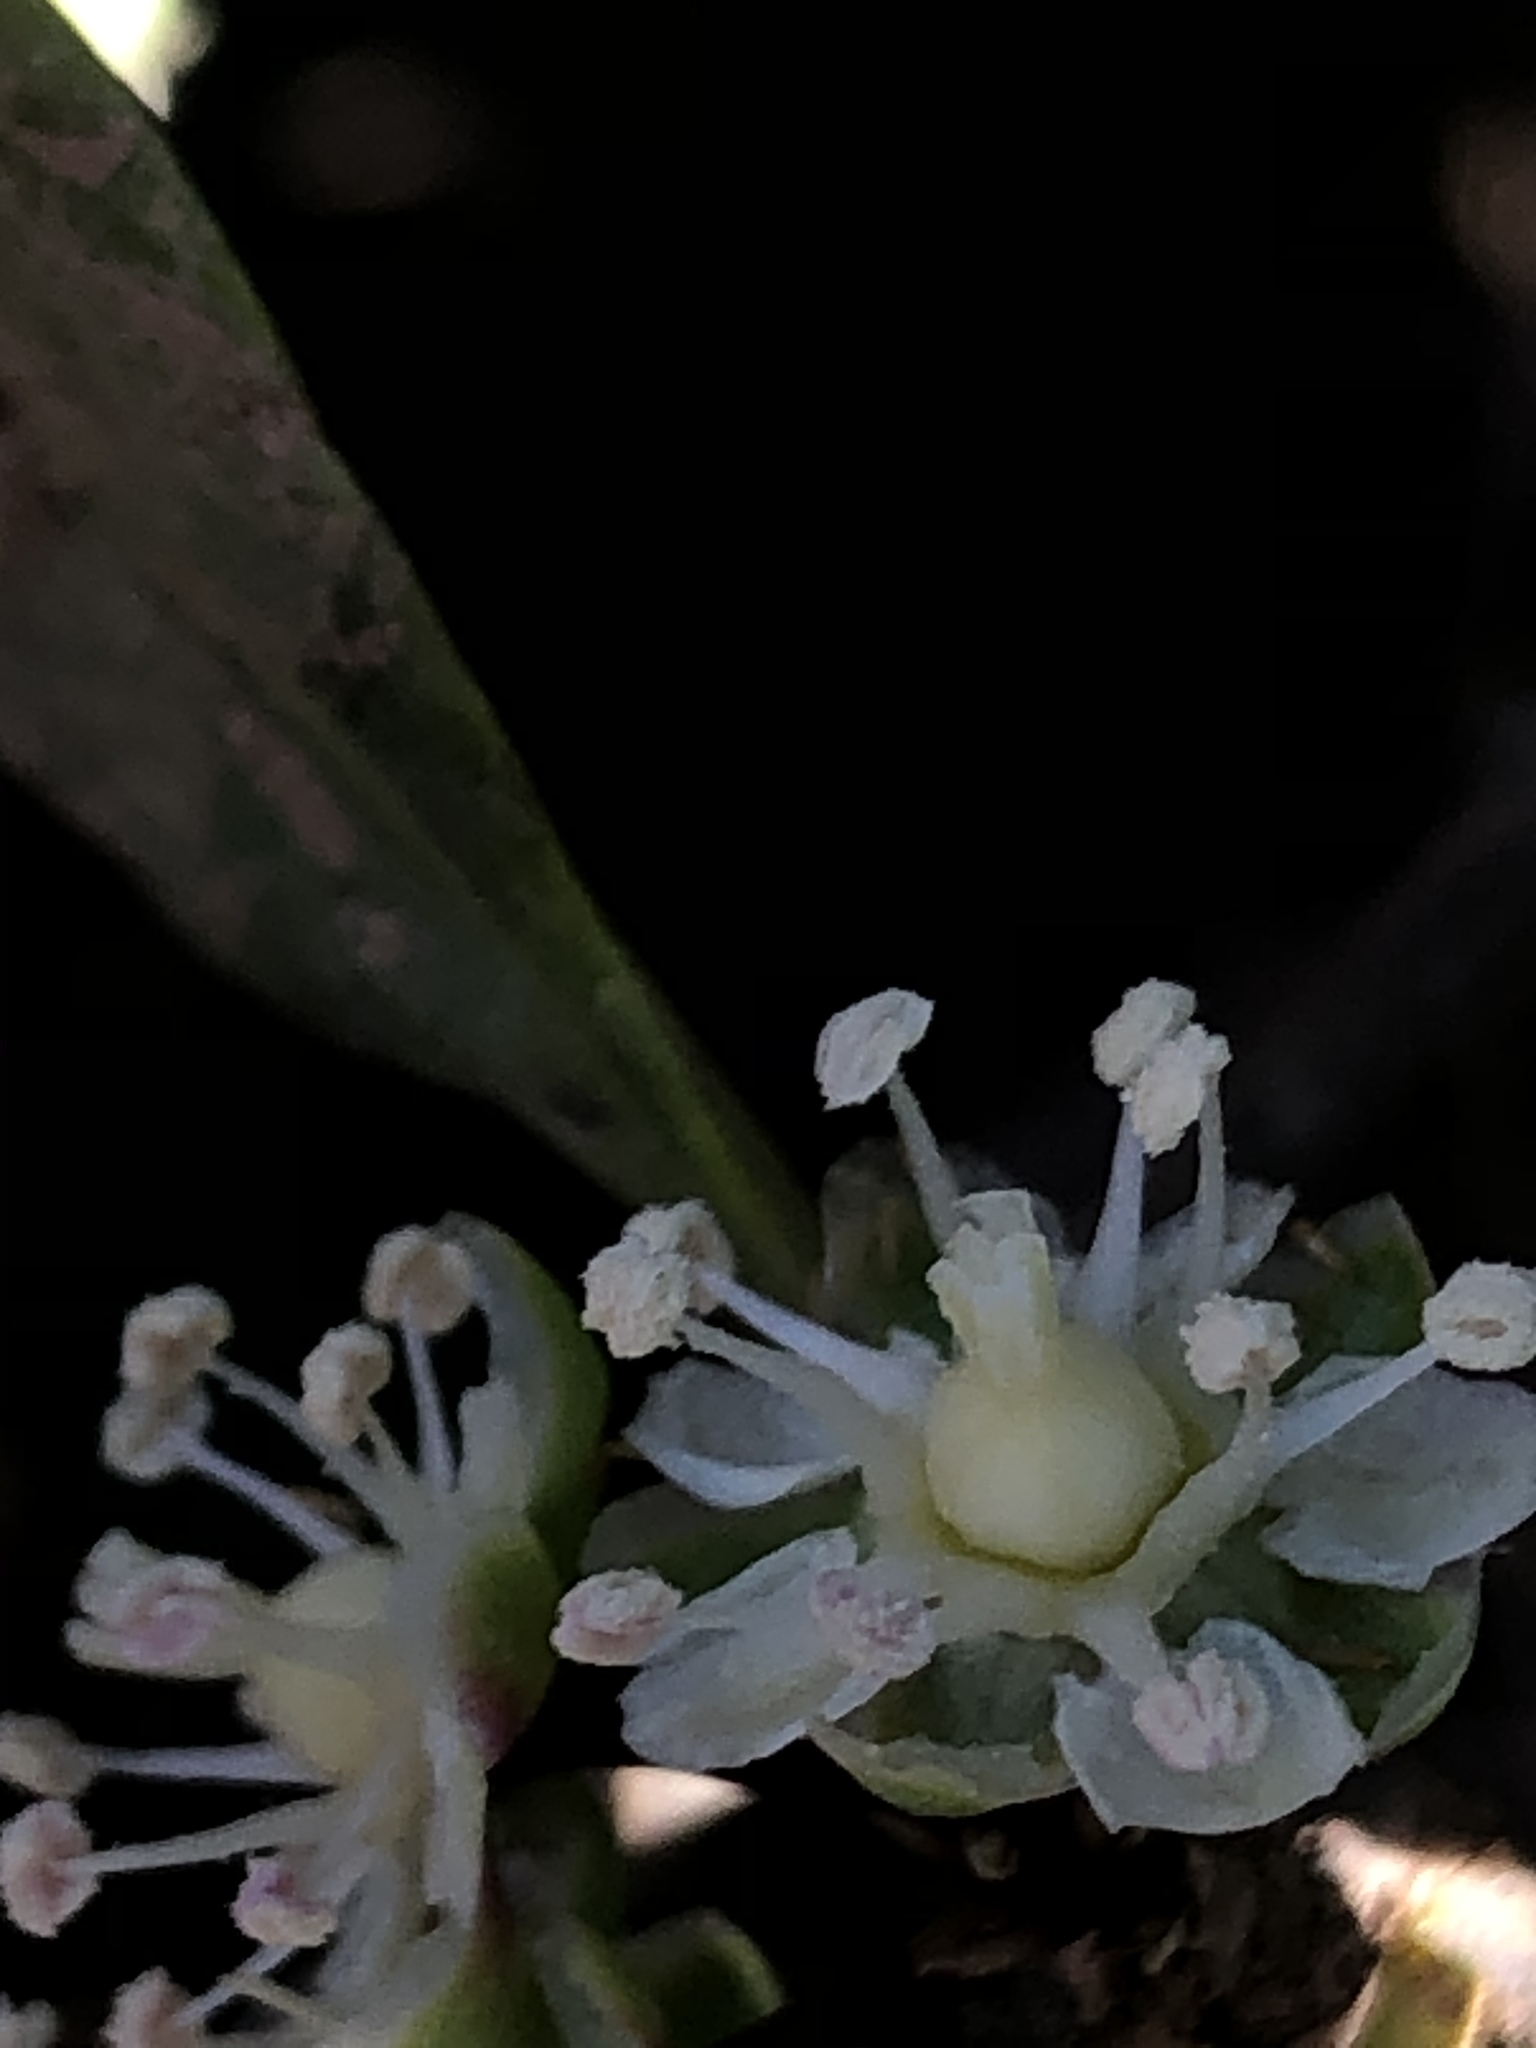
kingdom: Plantae
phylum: Tracheophyta
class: Magnoliopsida
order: Caryophyllales
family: Stegnospermataceae
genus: Stegnosperma
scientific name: Stegnosperma halimifolium
